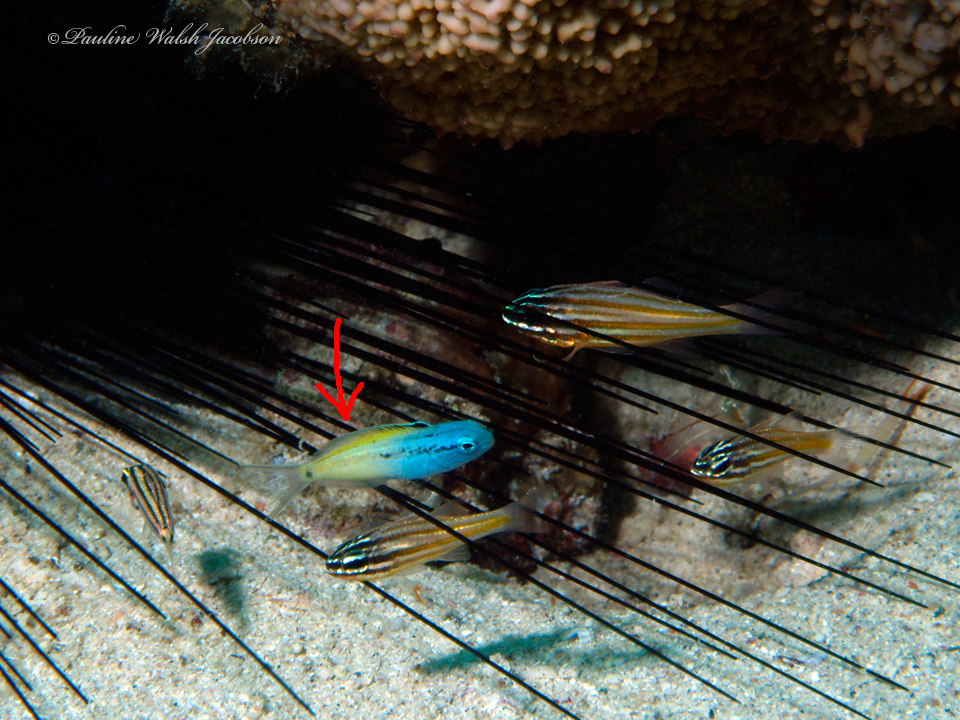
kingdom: Animalia
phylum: Chordata
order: Perciformes
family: Blenniidae
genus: Meiacanthus
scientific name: Meiacanthus nigrolineatus
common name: Blackline fangblenny
